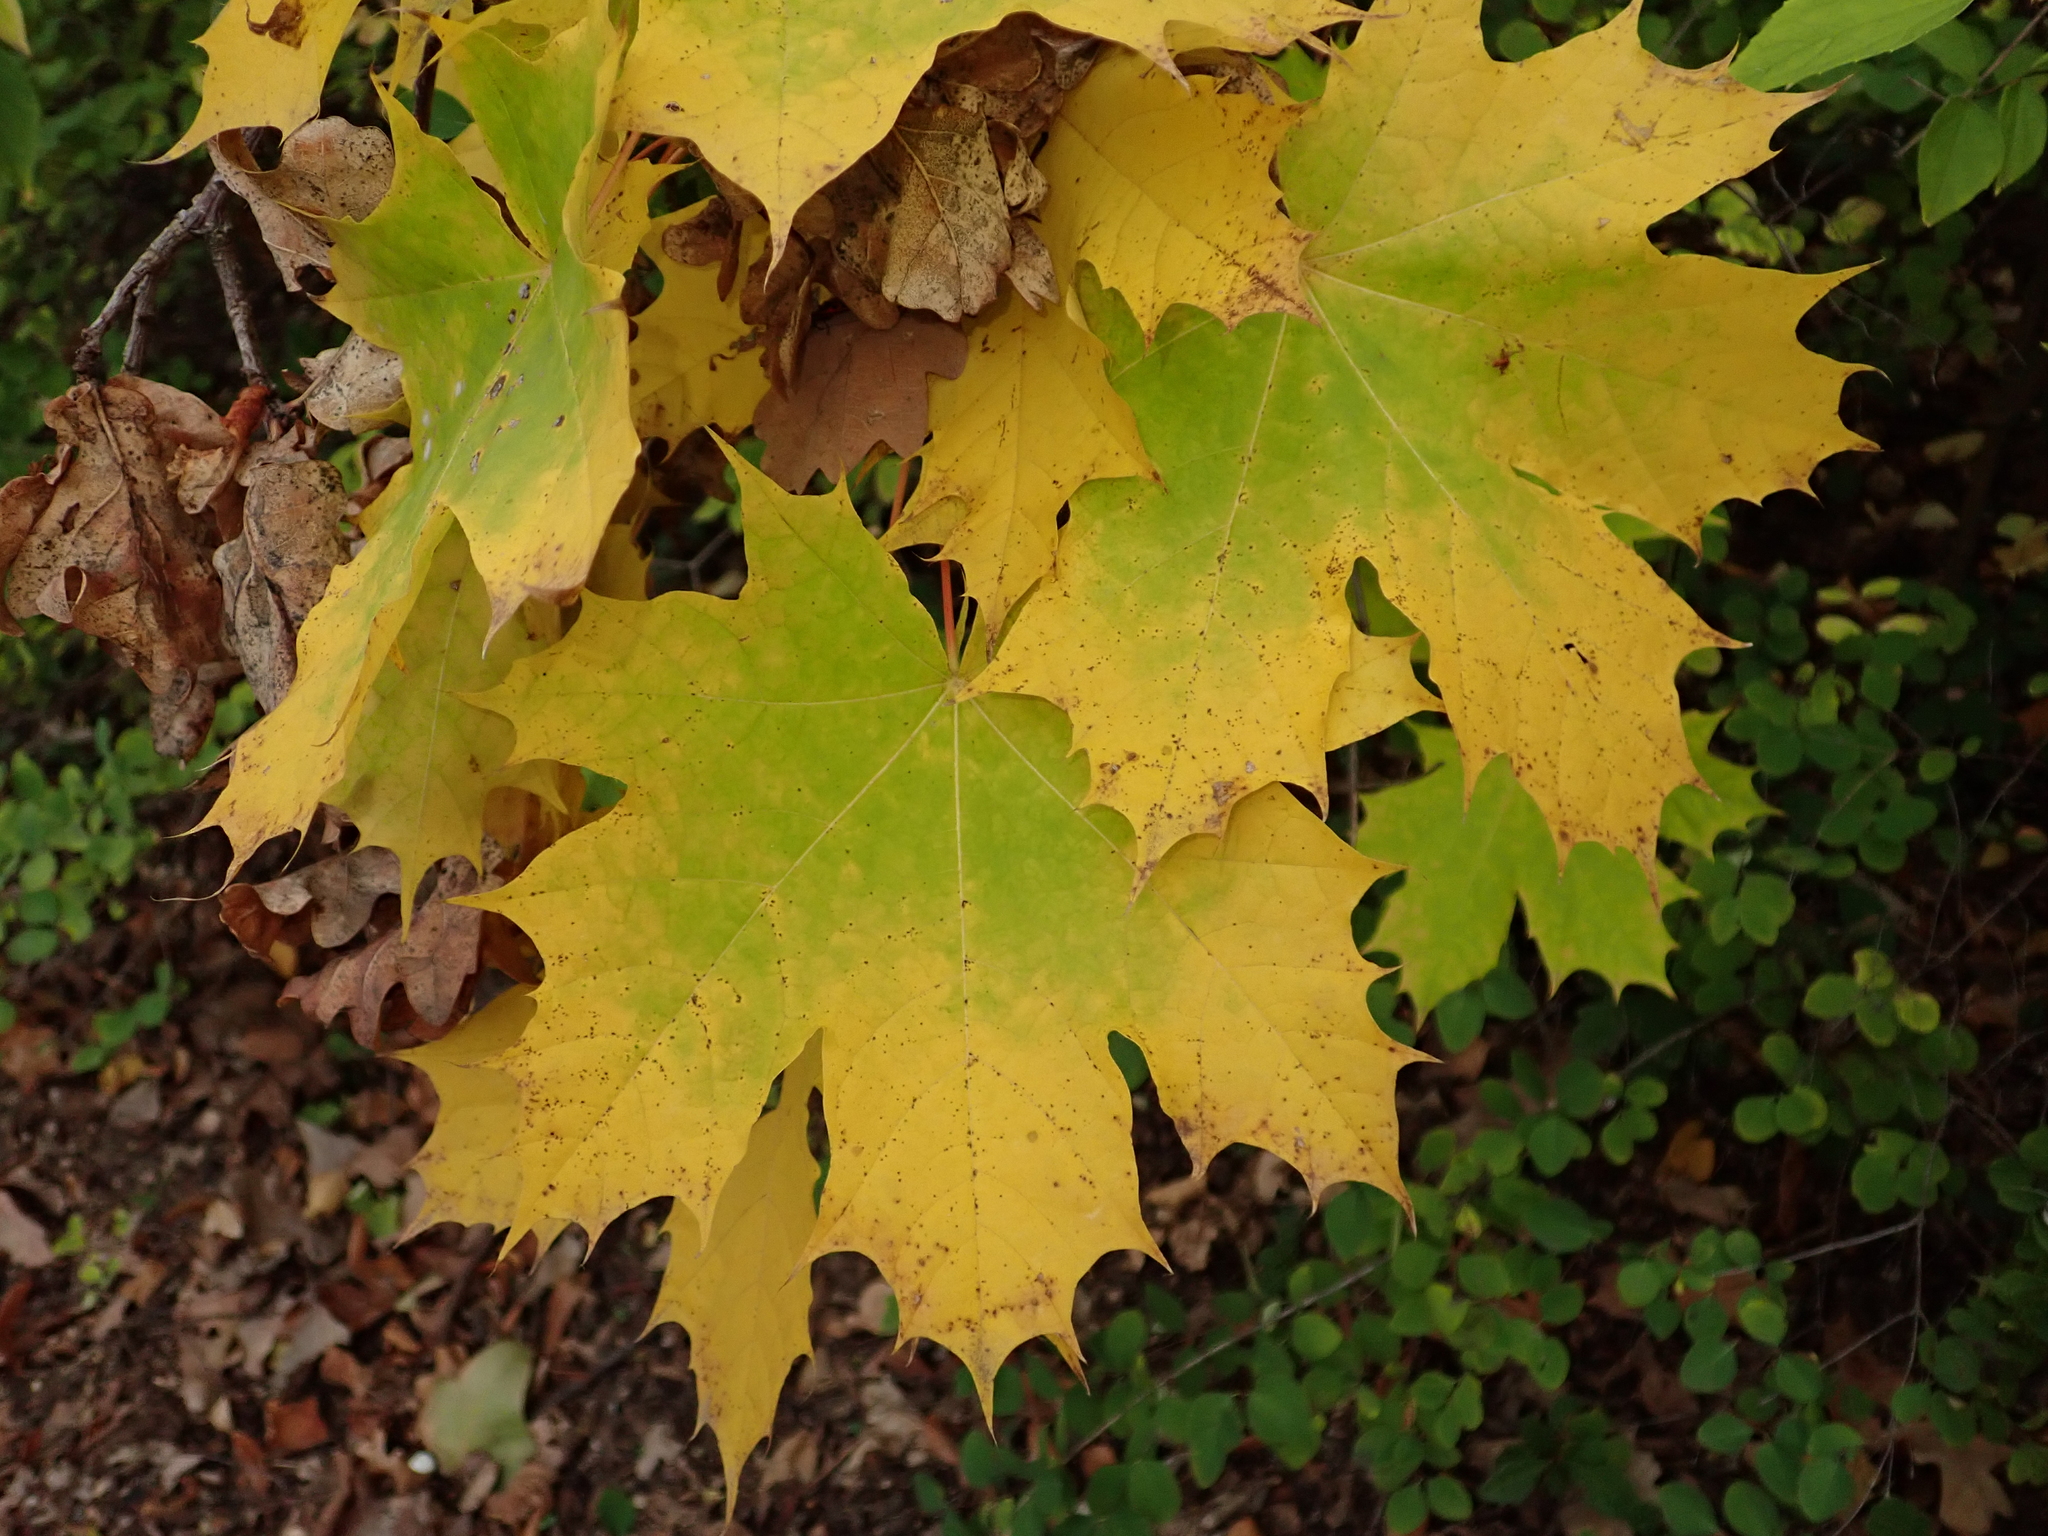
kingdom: Plantae
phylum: Tracheophyta
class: Magnoliopsida
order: Sapindales
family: Sapindaceae
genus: Acer
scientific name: Acer platanoides
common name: Norway maple
